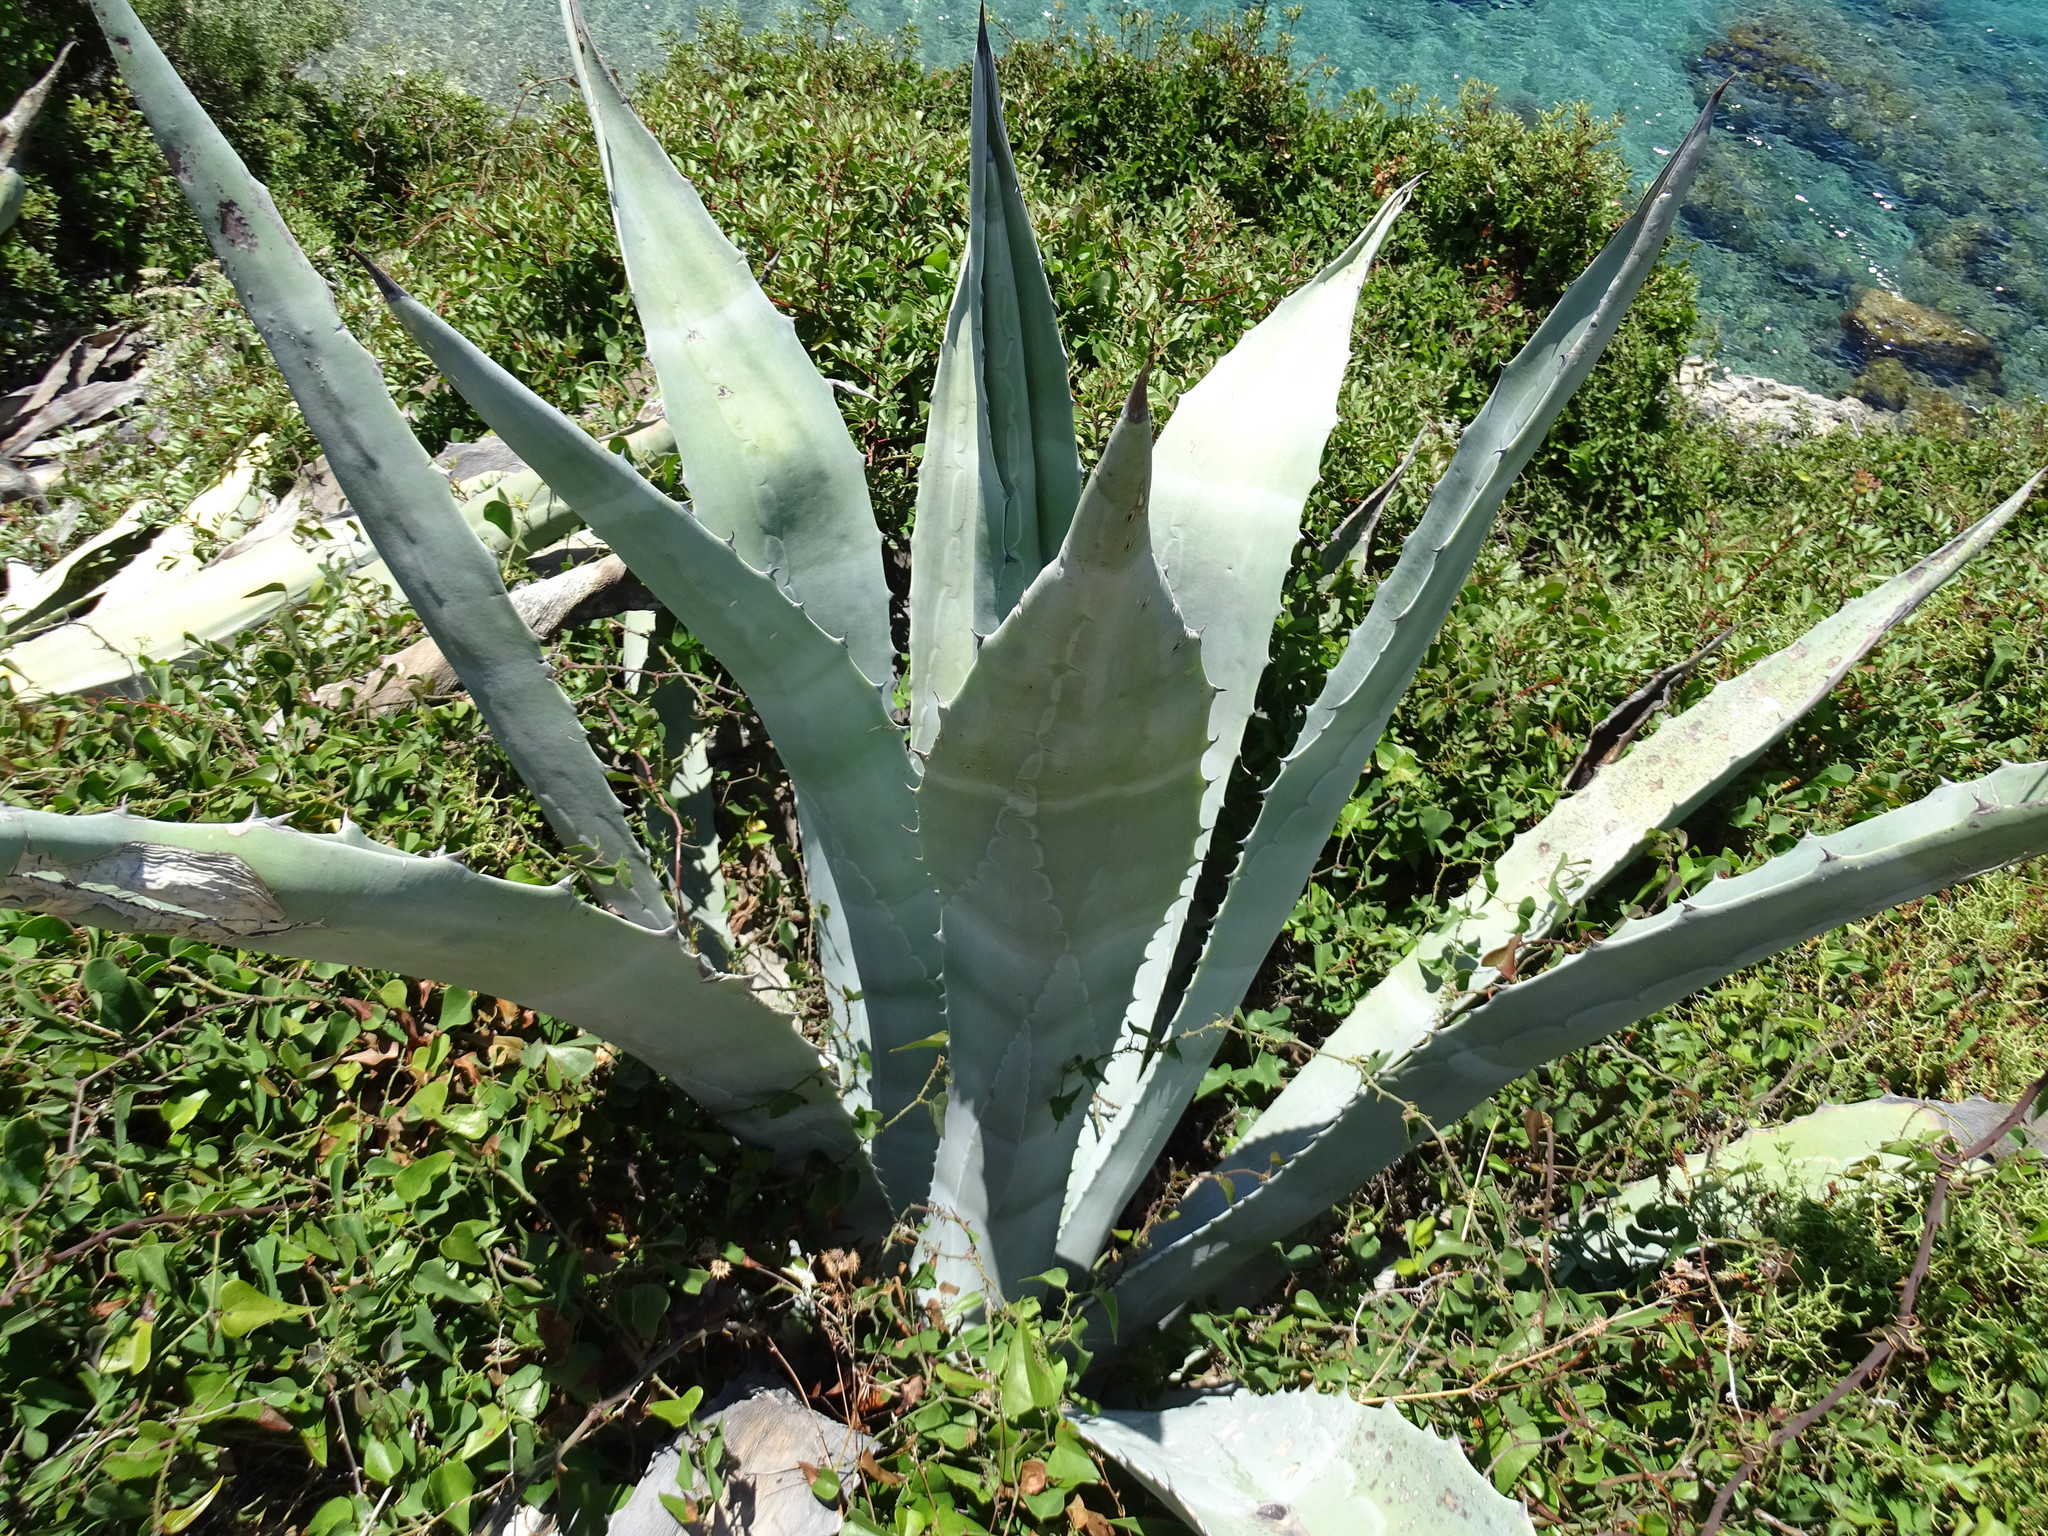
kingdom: Plantae
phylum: Tracheophyta
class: Liliopsida
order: Asparagales
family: Asparagaceae
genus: Agave
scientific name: Agave americana
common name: Centuryplant
